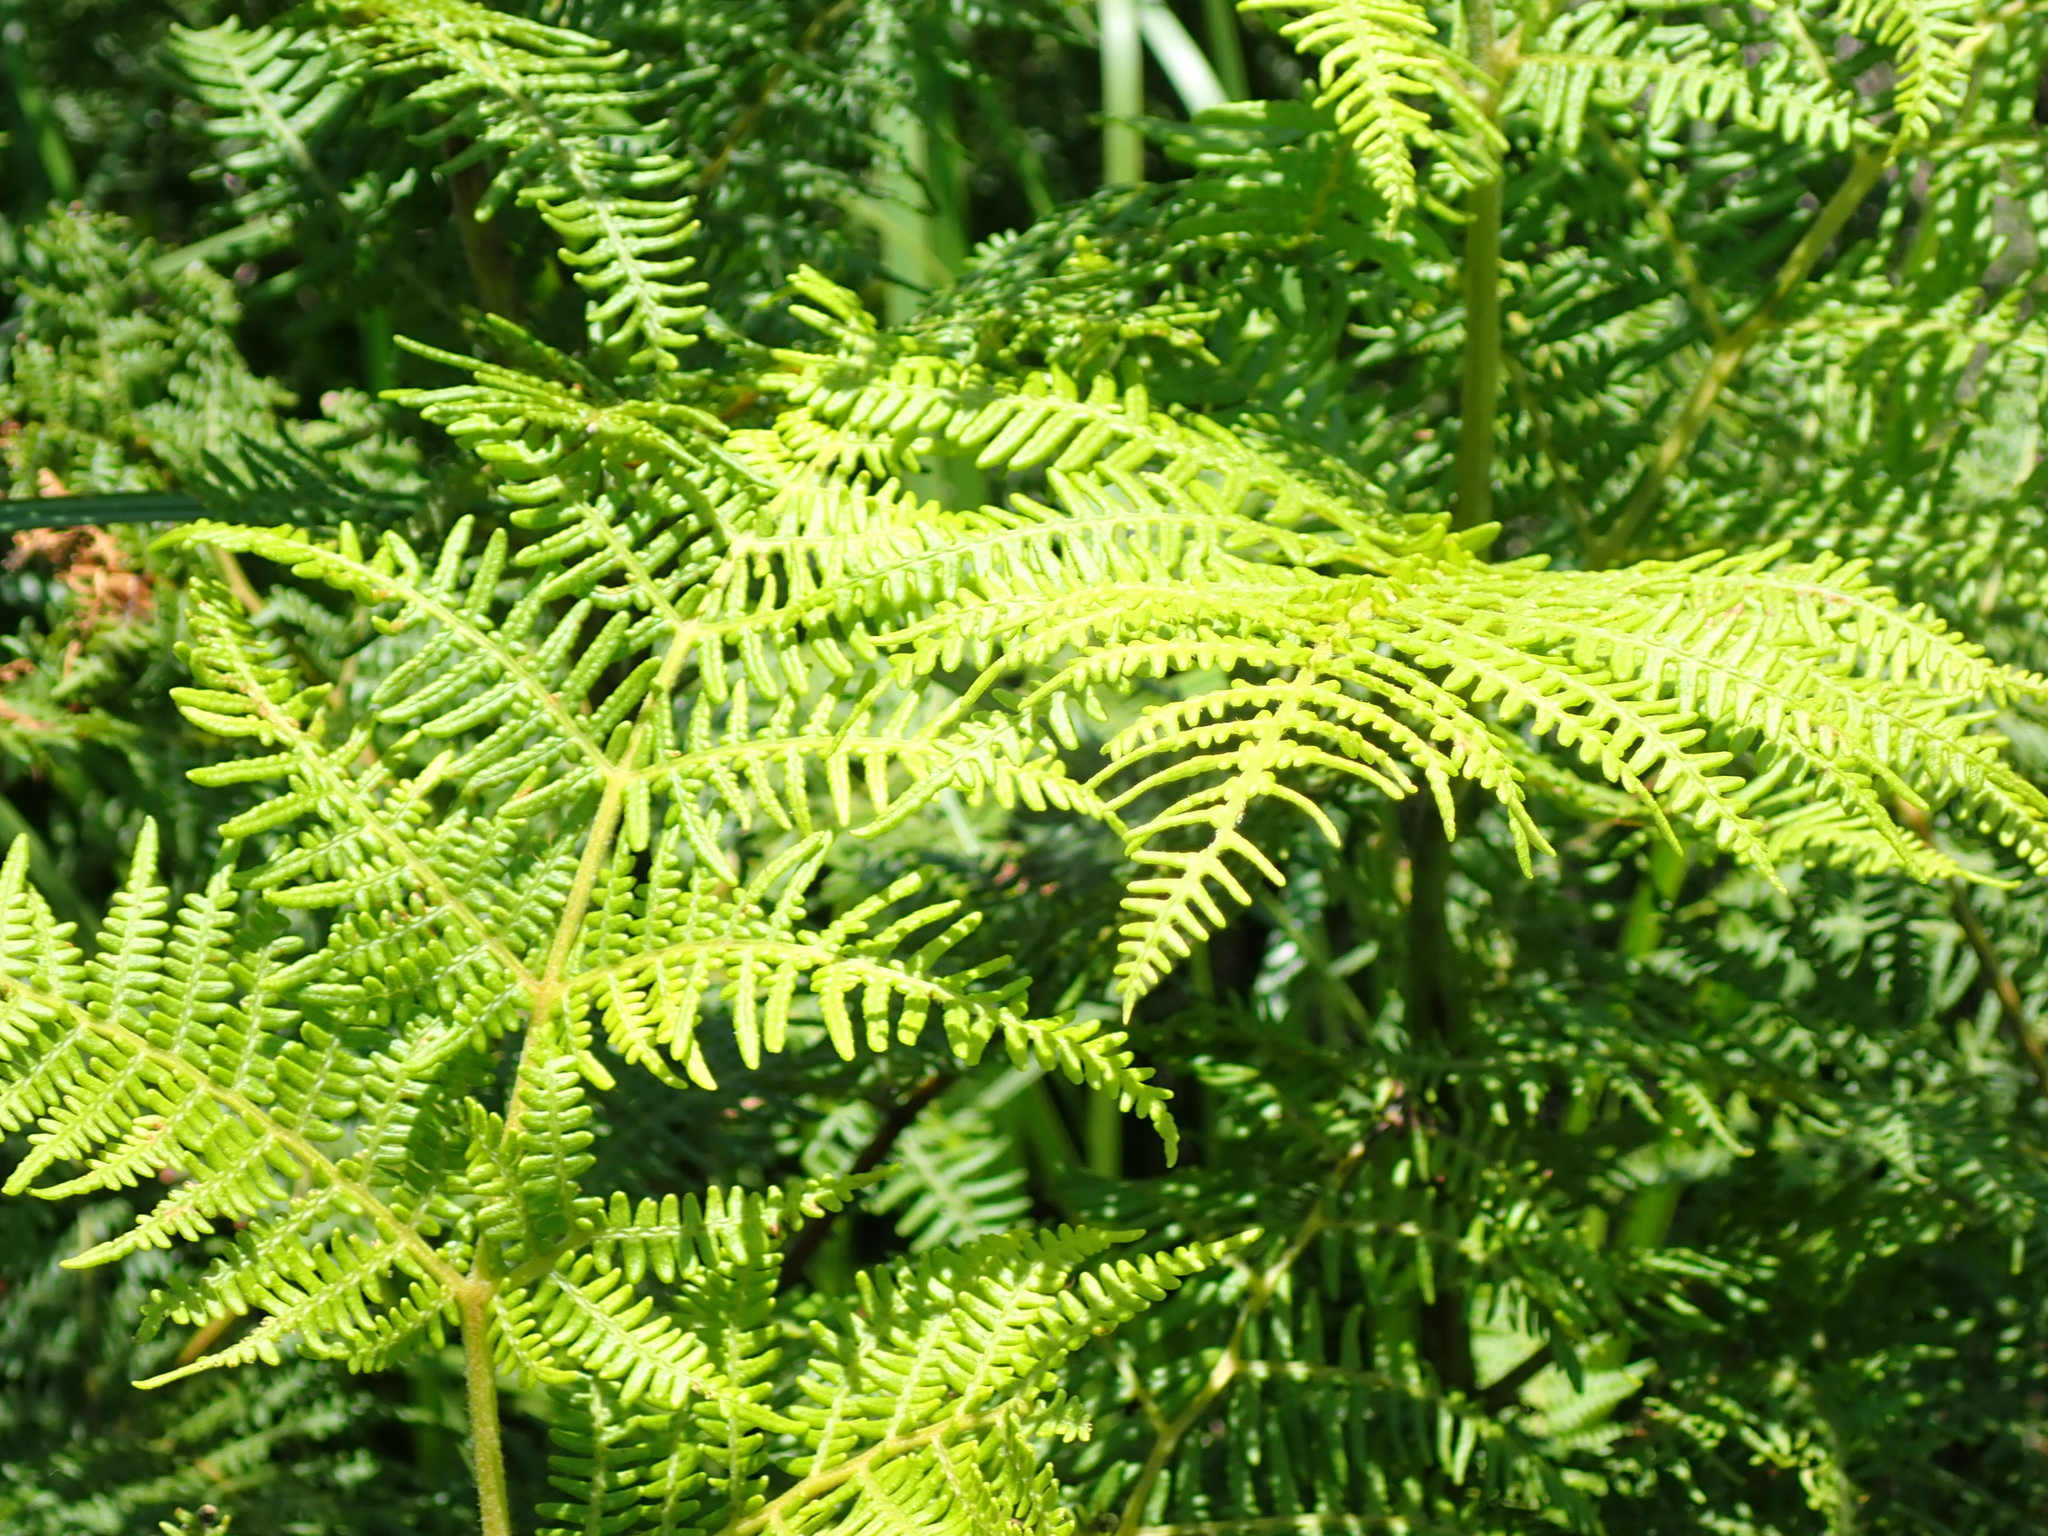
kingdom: Plantae
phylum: Tracheophyta
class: Polypodiopsida
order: Polypodiales
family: Dennstaedtiaceae
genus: Pteridium
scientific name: Pteridium aquilinum
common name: Bracken
